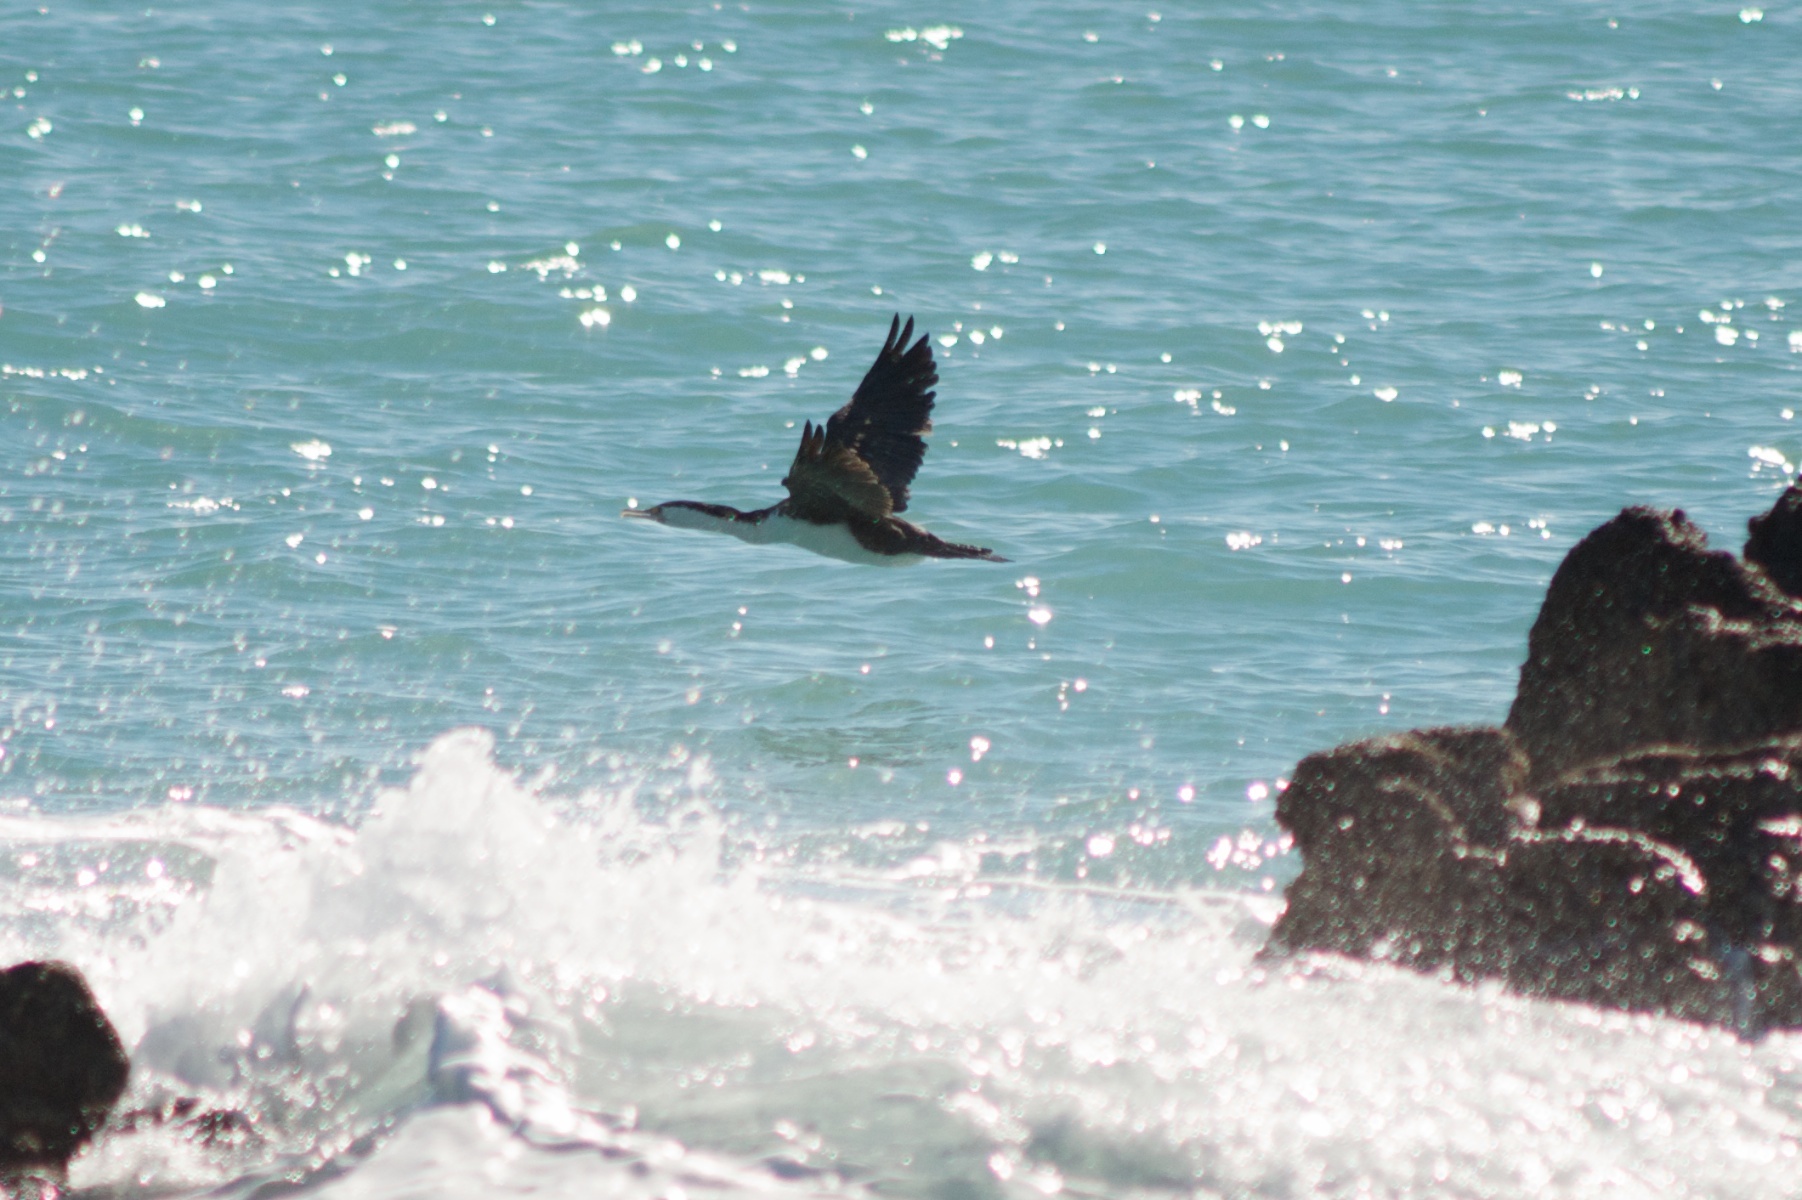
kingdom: Animalia
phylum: Chordata
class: Aves
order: Suliformes
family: Phalacrocoracidae
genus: Phalacrocorax
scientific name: Phalacrocorax varius
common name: Pied cormorant
